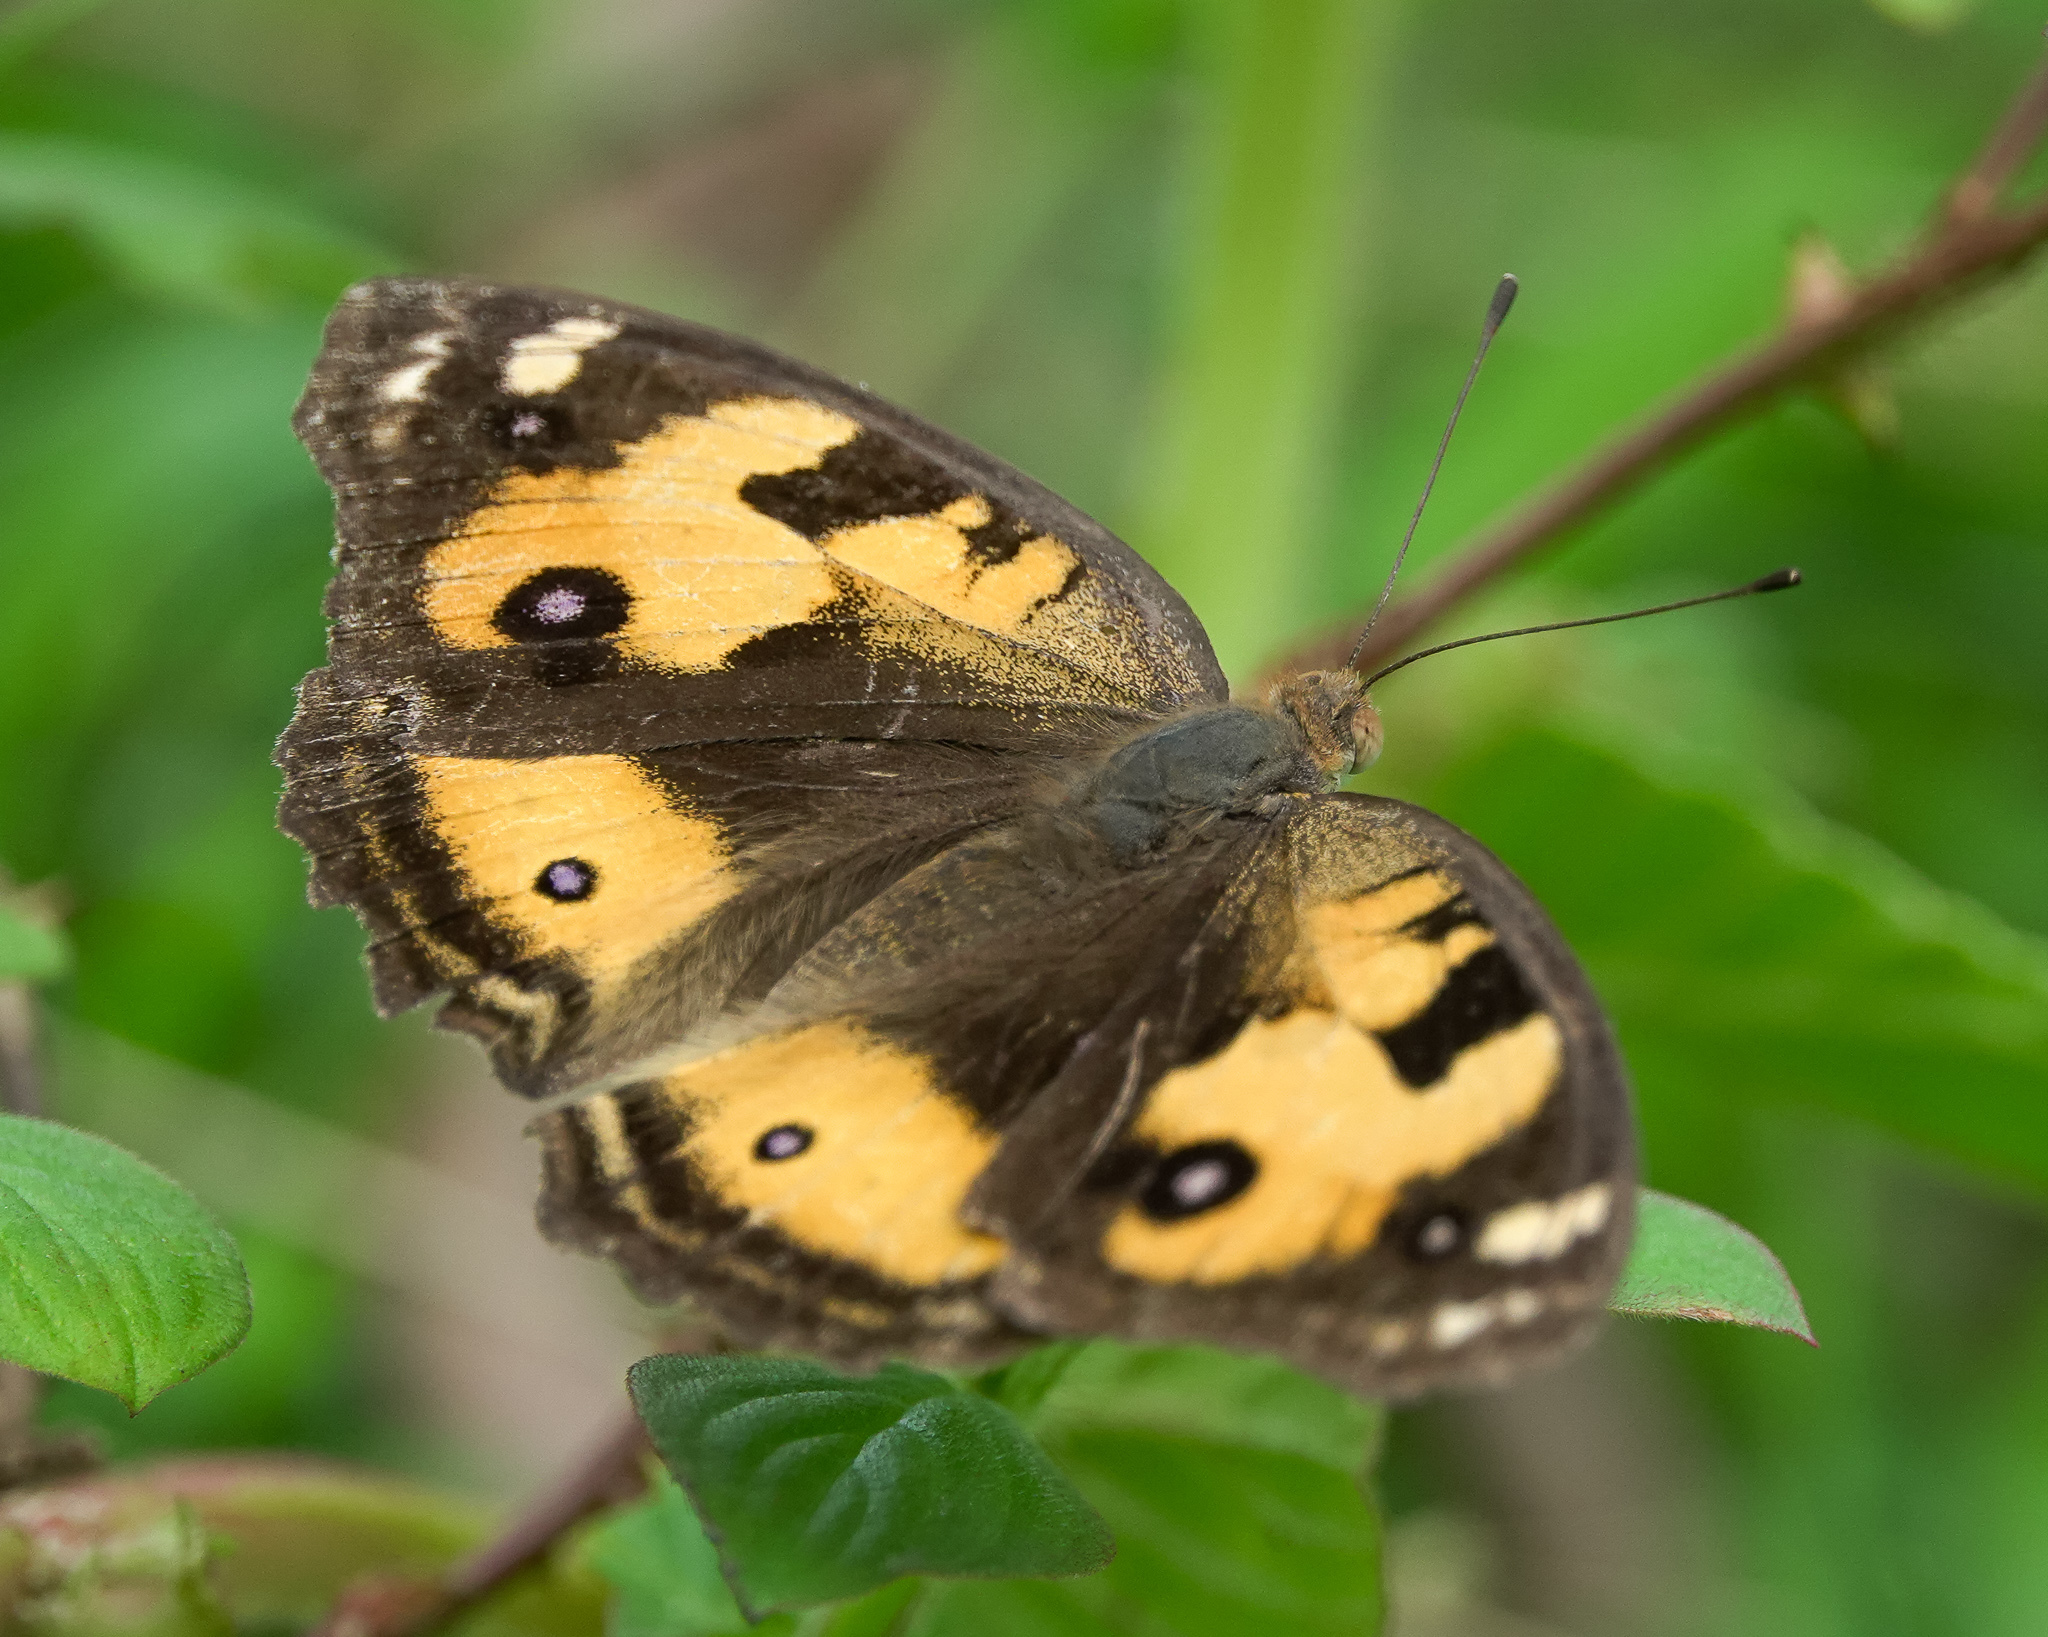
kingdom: Animalia
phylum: Arthropoda
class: Insecta
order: Lepidoptera
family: Nymphalidae
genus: Junonia
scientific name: Junonia hierta
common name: Yellow pansy
